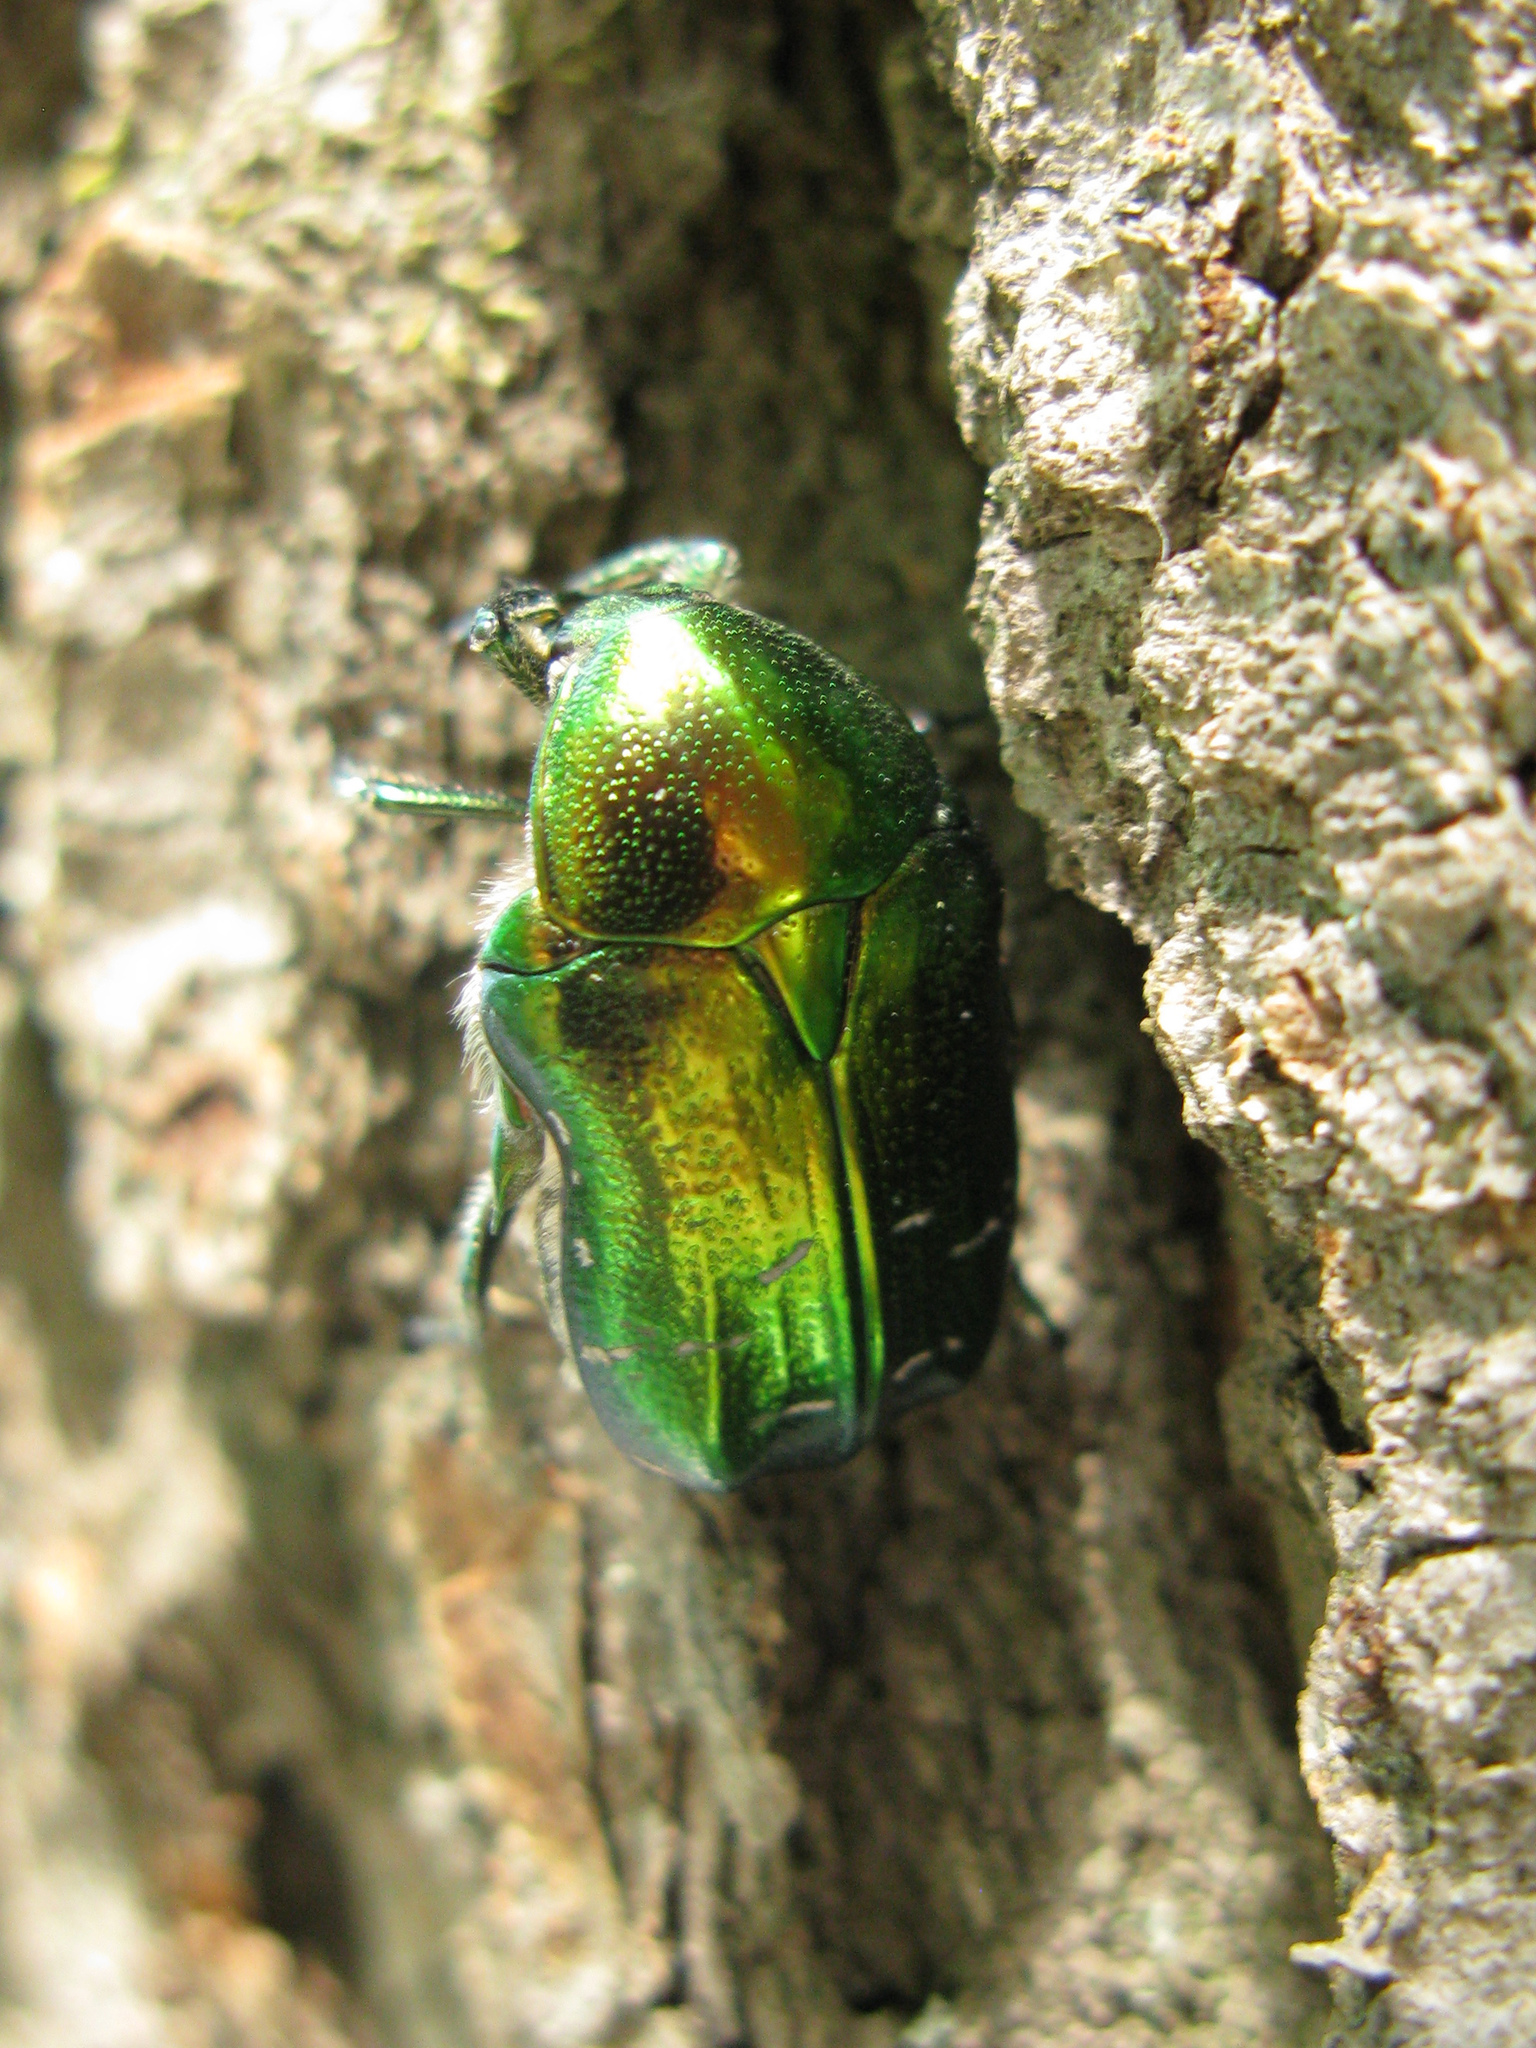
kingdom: Animalia
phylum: Arthropoda
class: Insecta
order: Coleoptera
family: Scarabaeidae
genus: Cetonia
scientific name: Cetonia aurata
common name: Rose chafer
